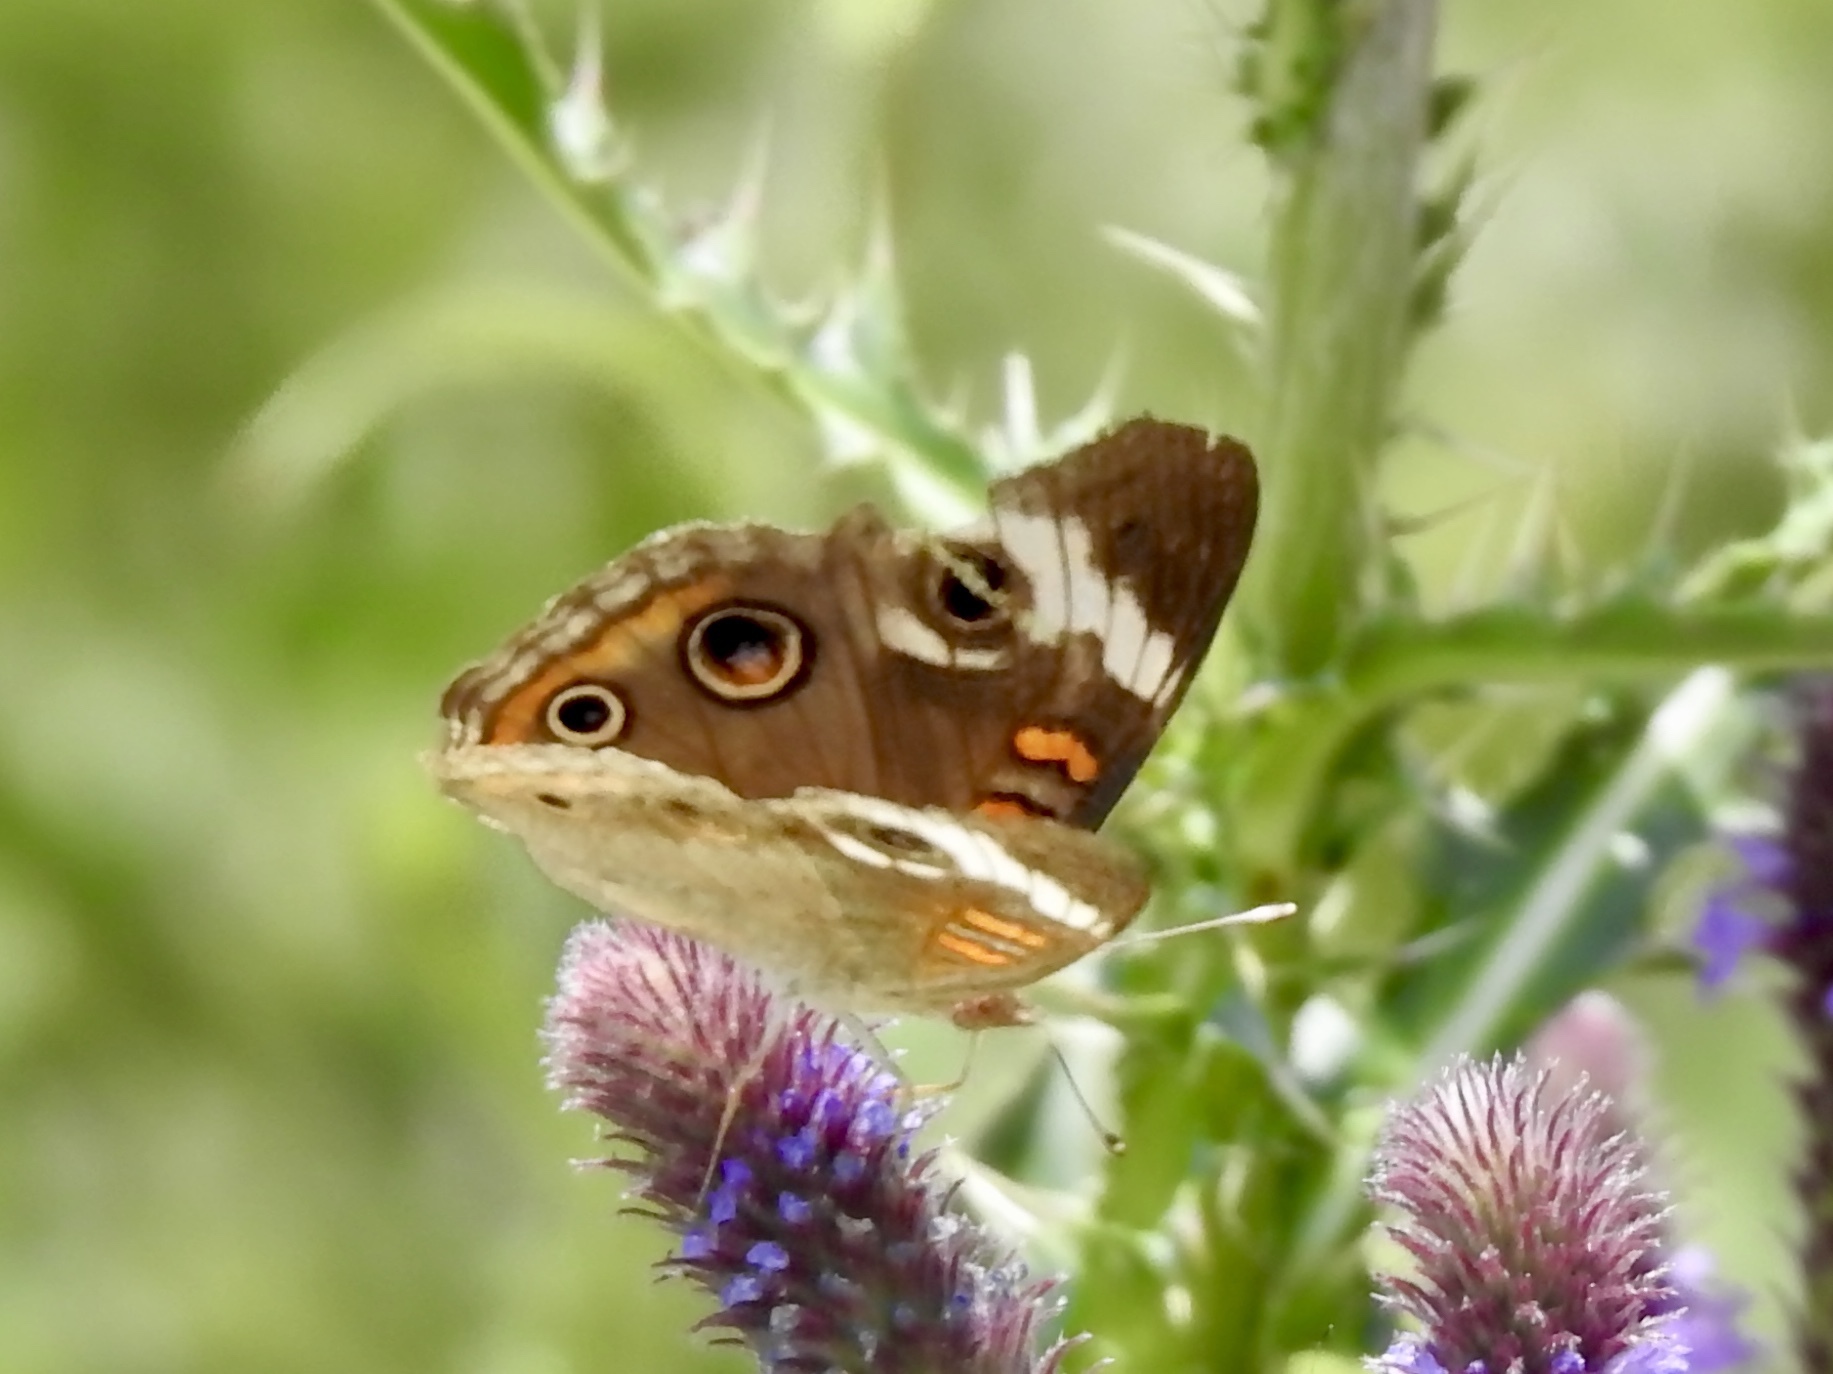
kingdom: Animalia
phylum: Arthropoda
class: Insecta
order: Lepidoptera
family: Nymphalidae
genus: Junonia
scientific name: Junonia grisea
